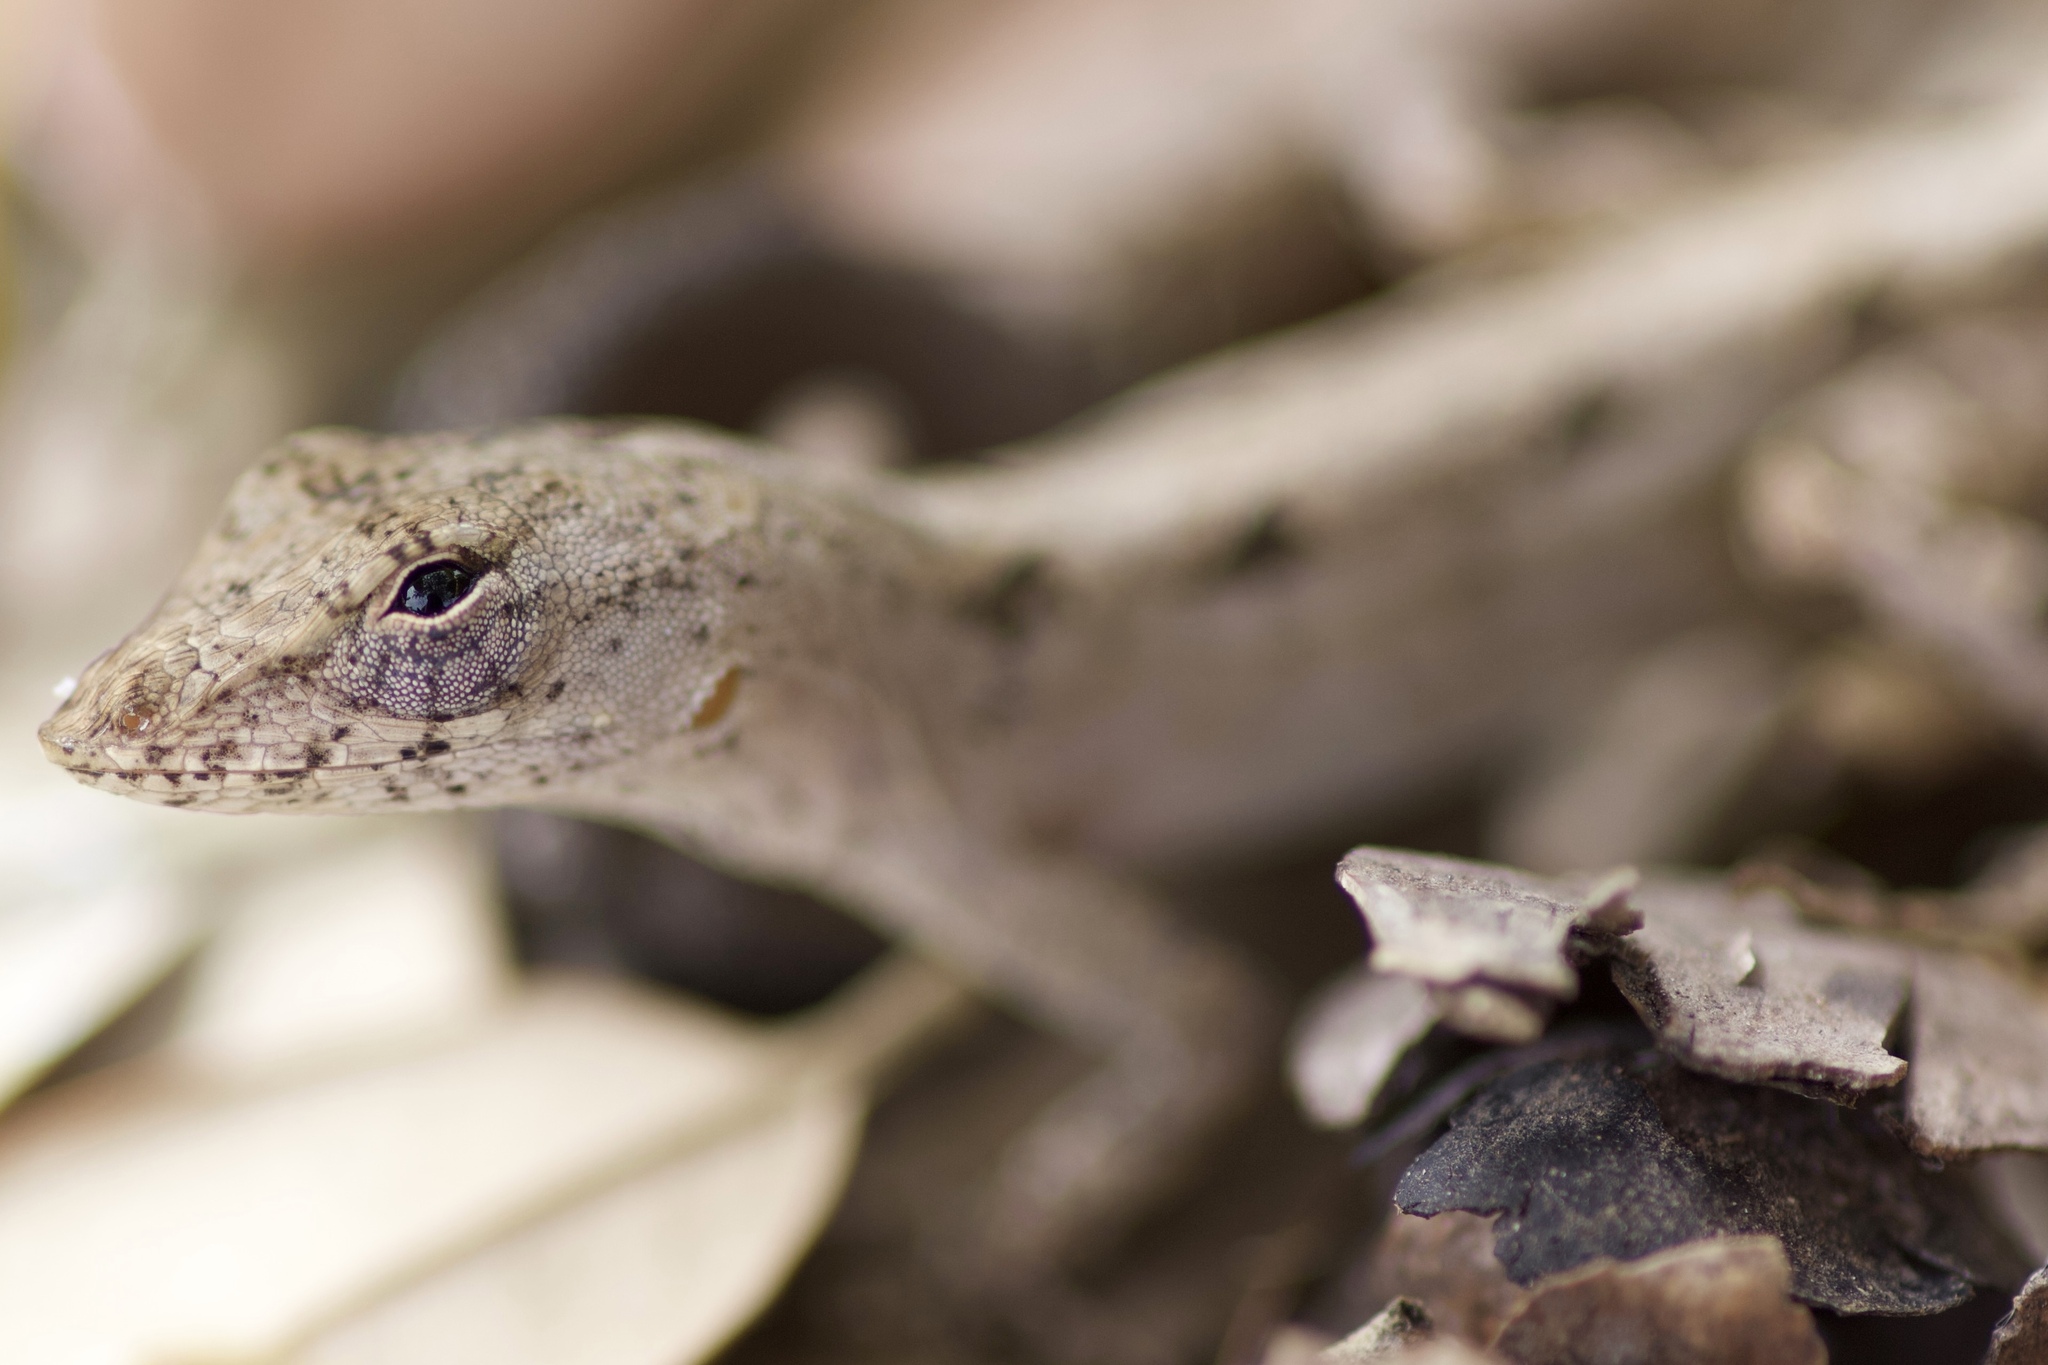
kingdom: Animalia
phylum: Chordata
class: Squamata
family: Dactyloidae
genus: Anolis
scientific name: Anolis sagrei
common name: Brown anole
